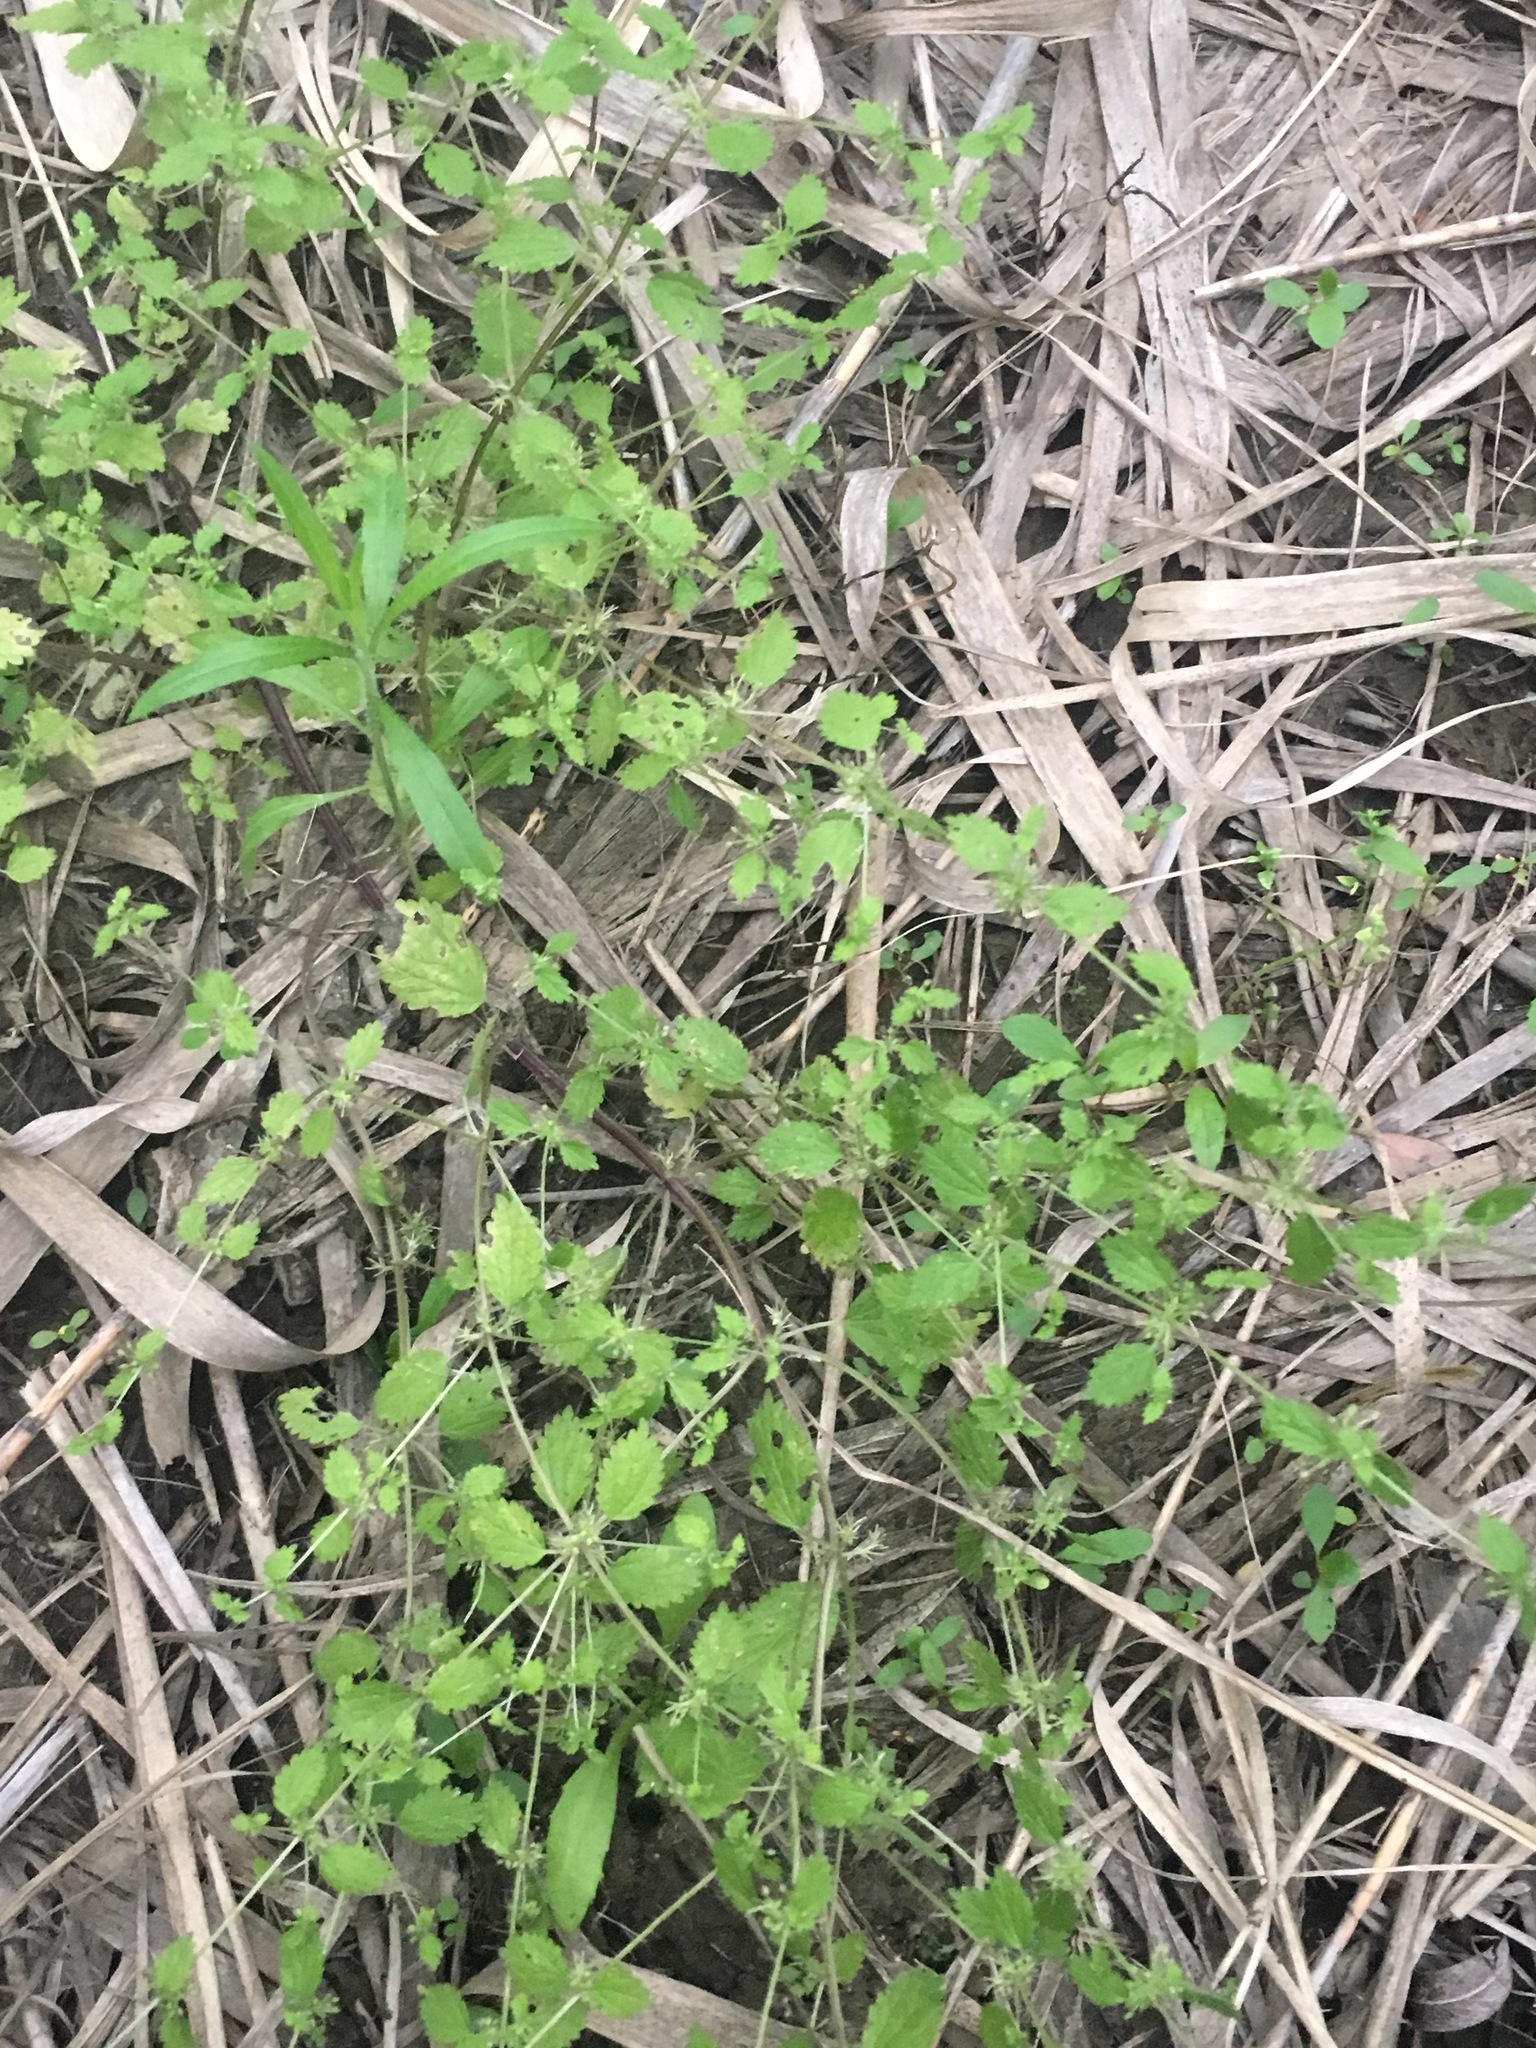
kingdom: Plantae
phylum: Tracheophyta
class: Magnoliopsida
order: Rosales
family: Urticaceae
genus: Hesperocnide
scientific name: Hesperocnide tenella
